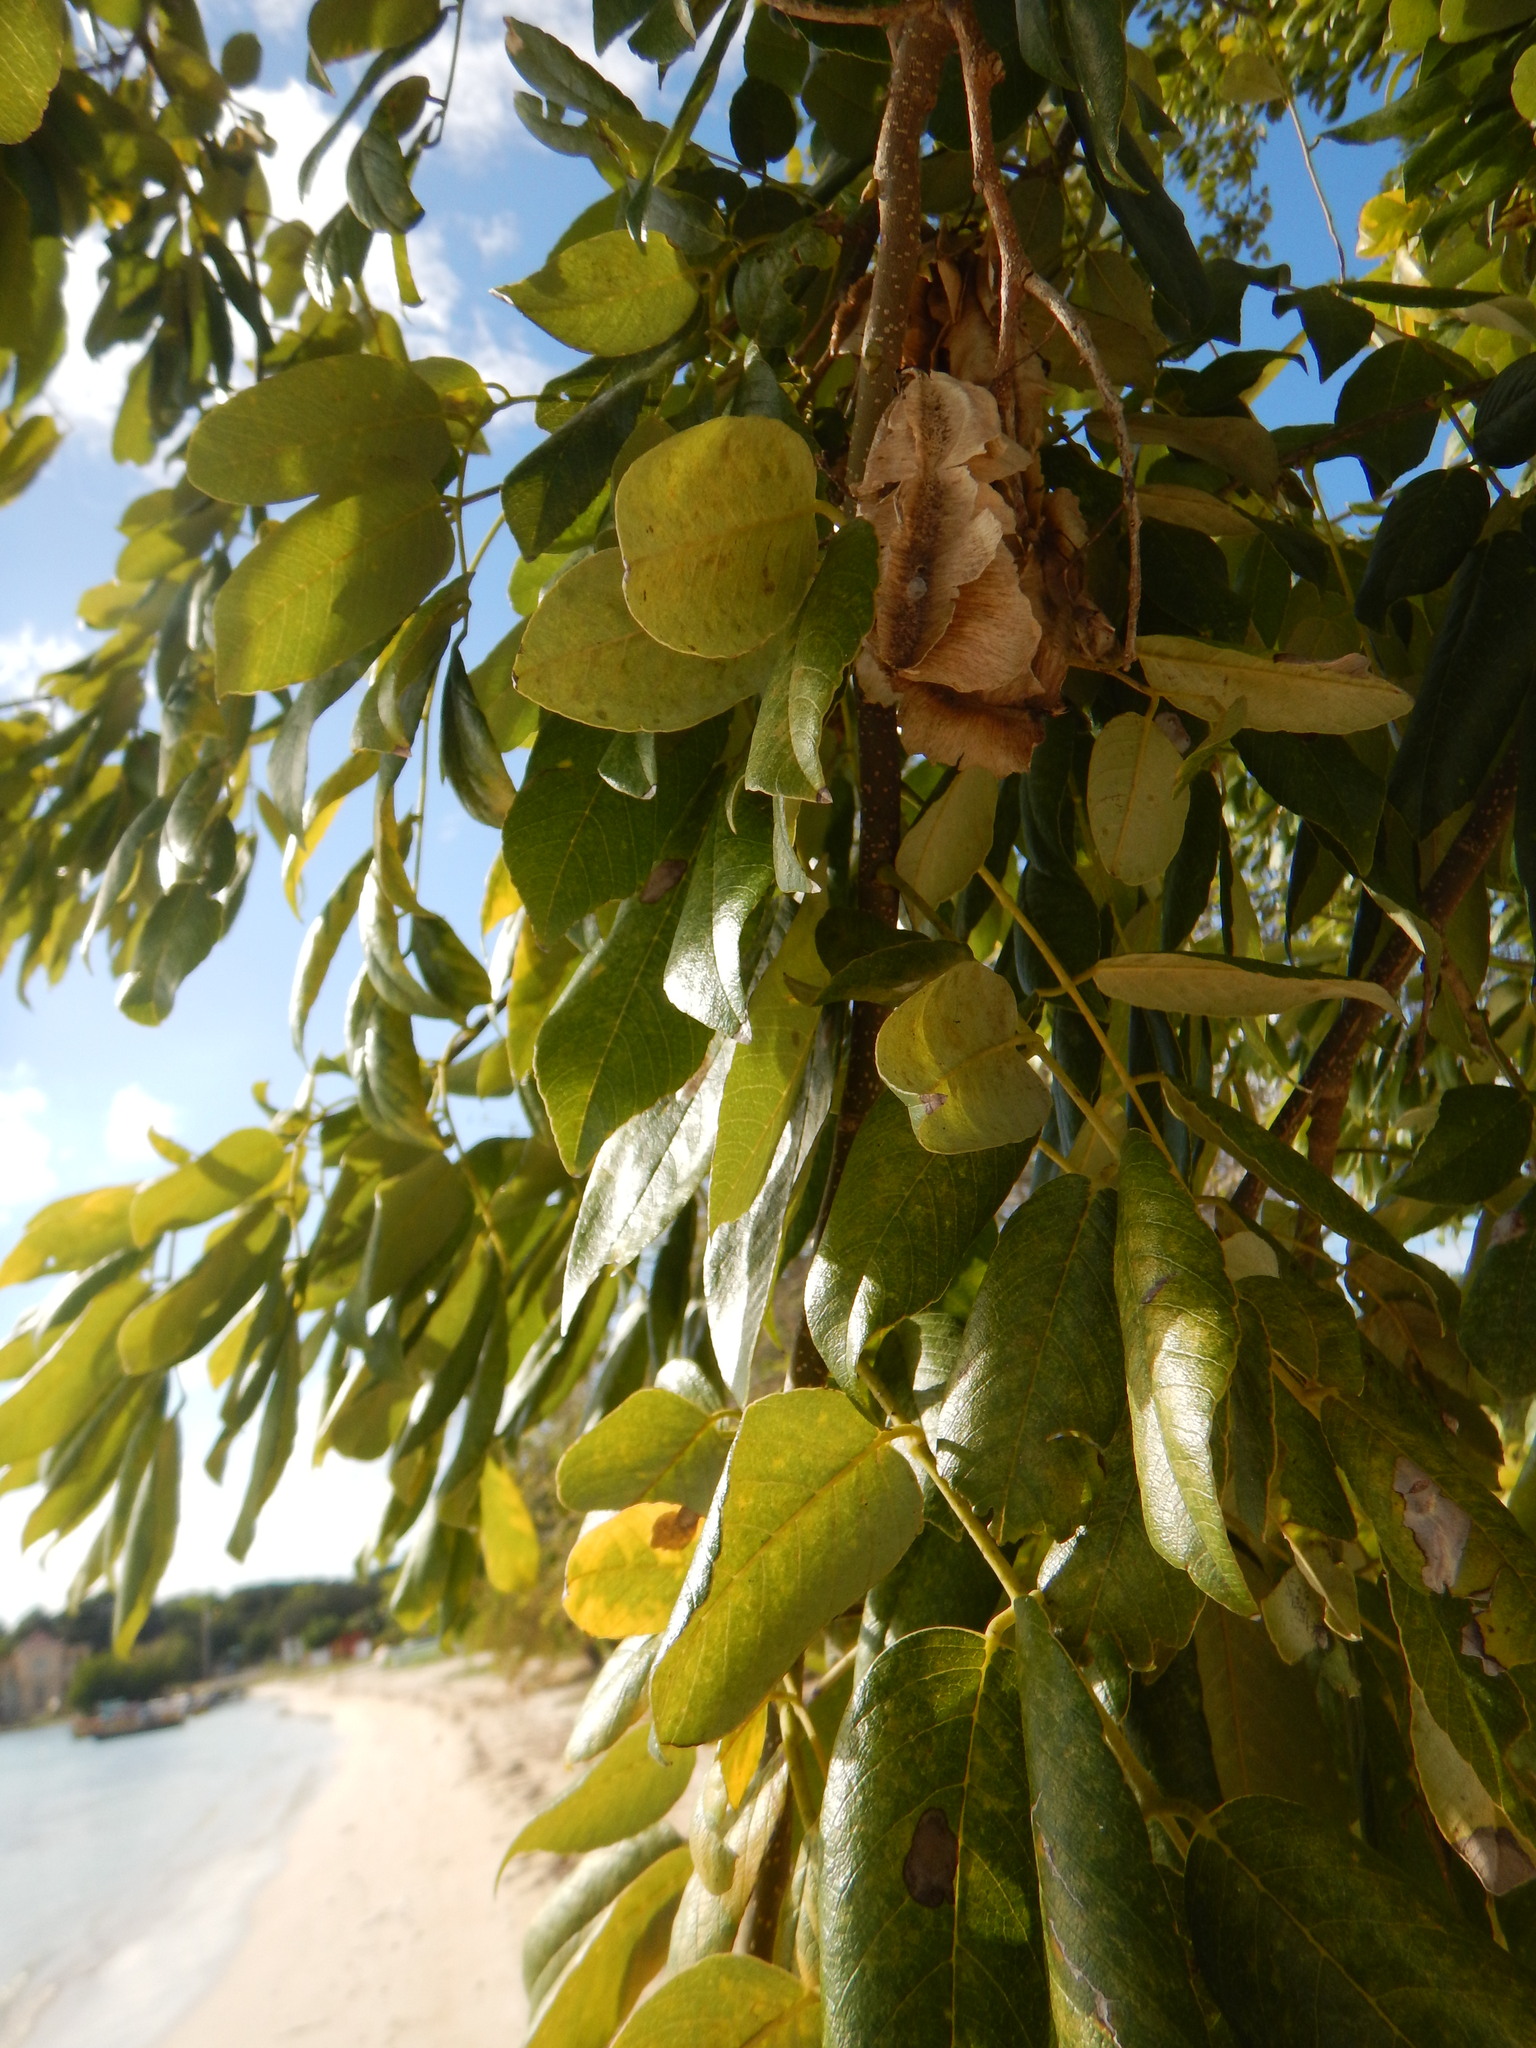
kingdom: Plantae
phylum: Tracheophyta
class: Magnoliopsida
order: Fabales
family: Fabaceae
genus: Piscidia
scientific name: Piscidia piscipula
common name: Florida fishpoison tree
